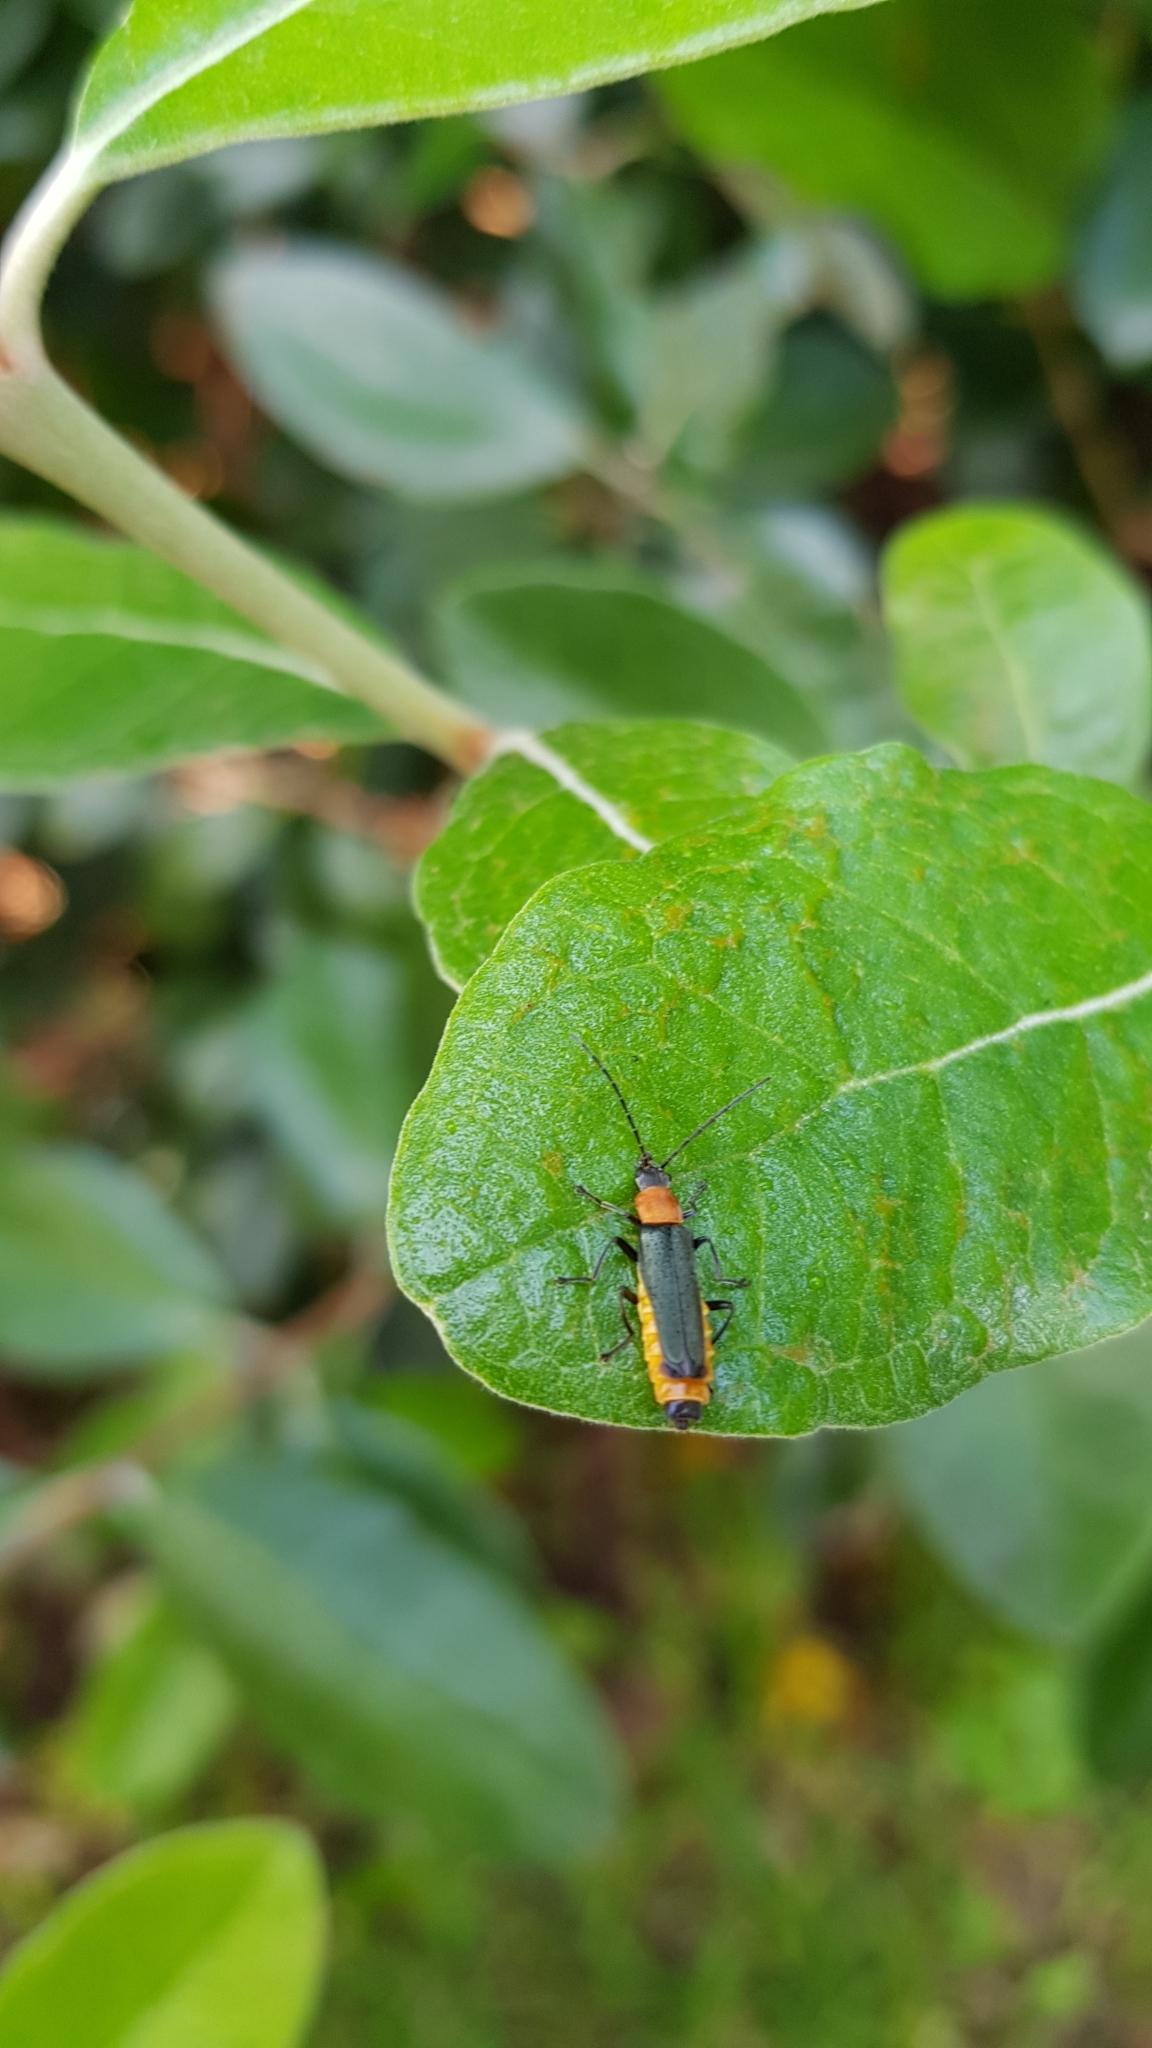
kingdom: Animalia
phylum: Arthropoda
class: Insecta
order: Coleoptera
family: Cantharidae
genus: Chauliognathus
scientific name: Chauliognathus
